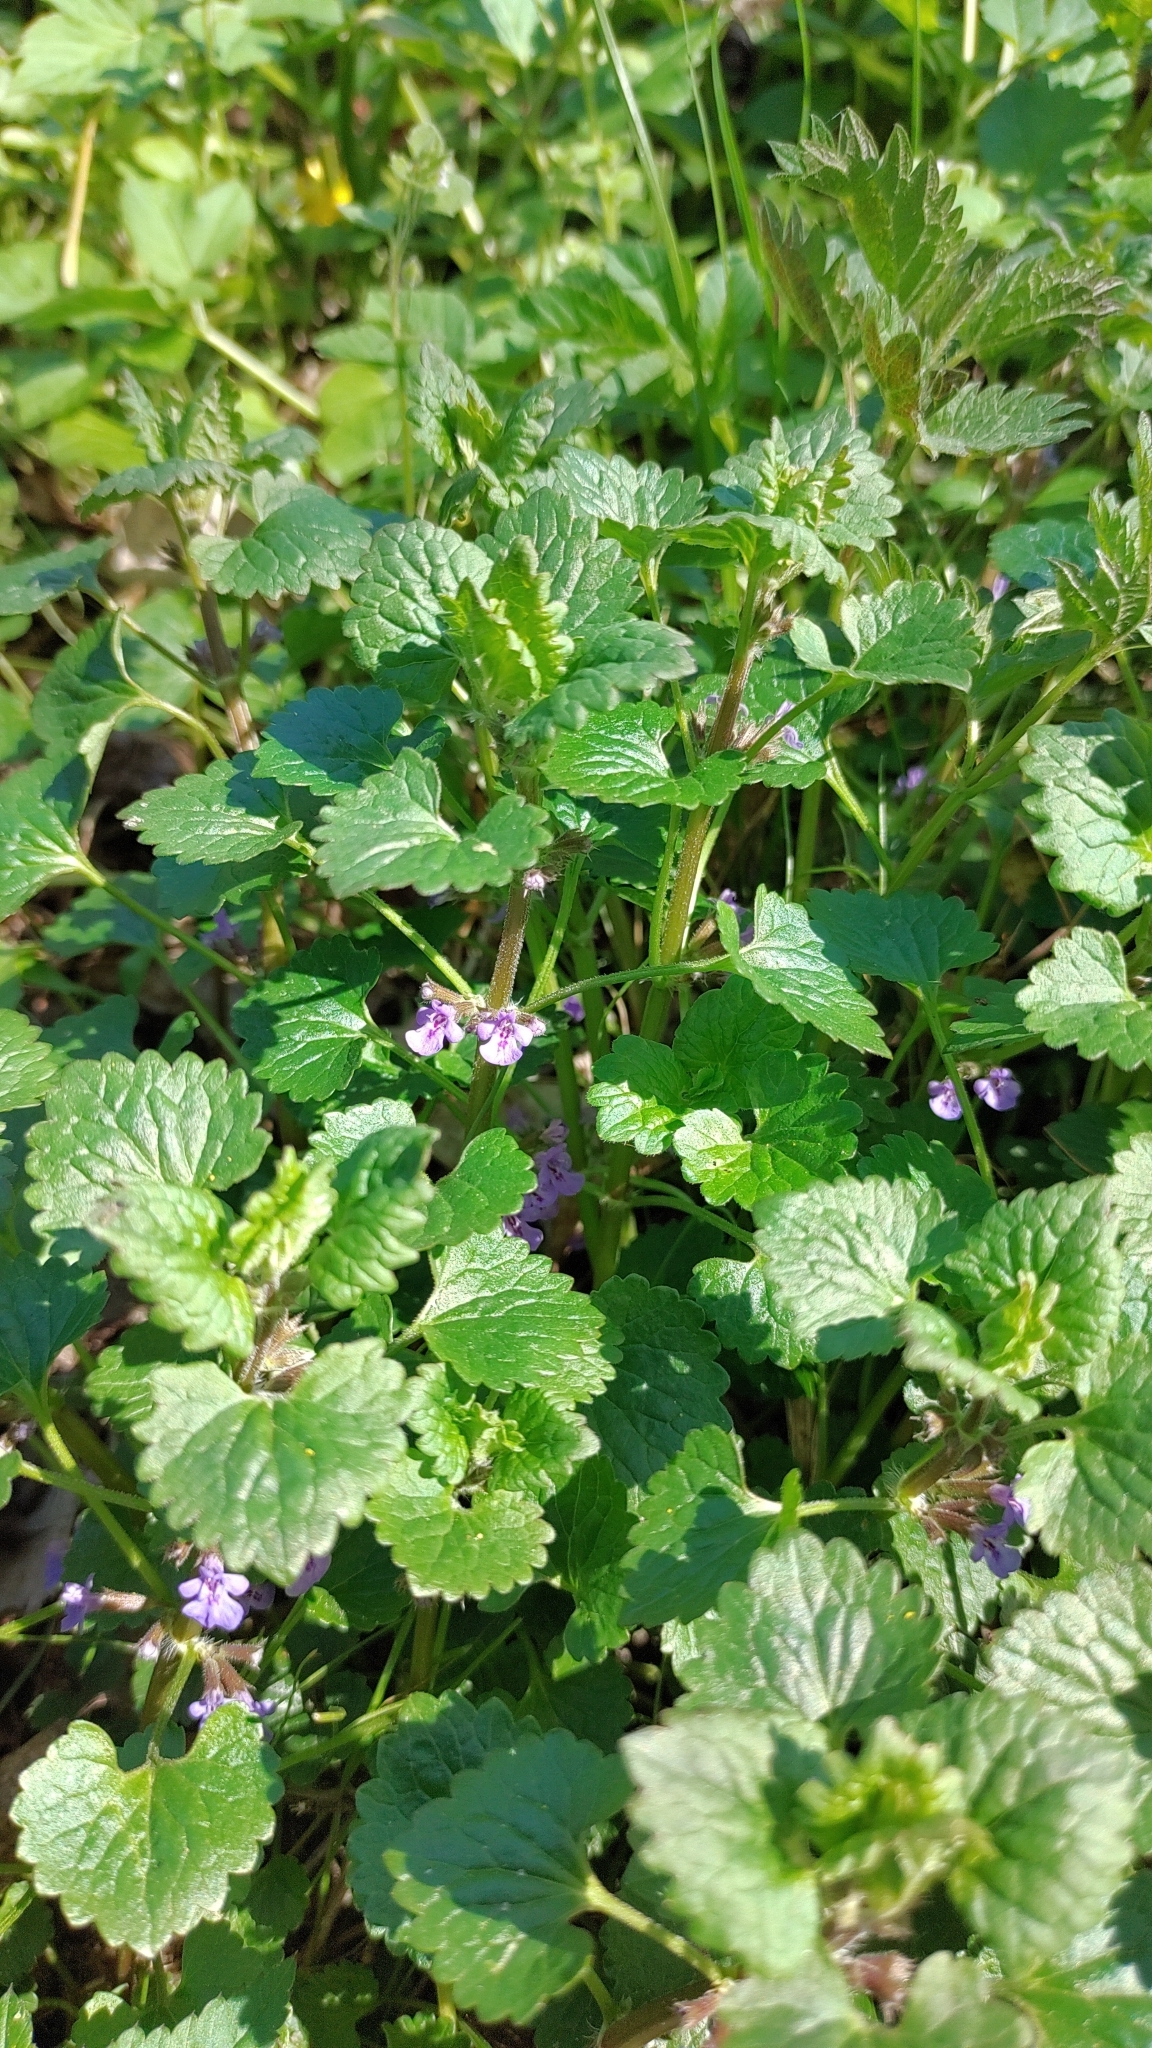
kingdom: Plantae
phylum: Tracheophyta
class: Magnoliopsida
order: Lamiales
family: Lamiaceae
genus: Glechoma
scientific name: Glechoma hederacea
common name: Ground ivy
